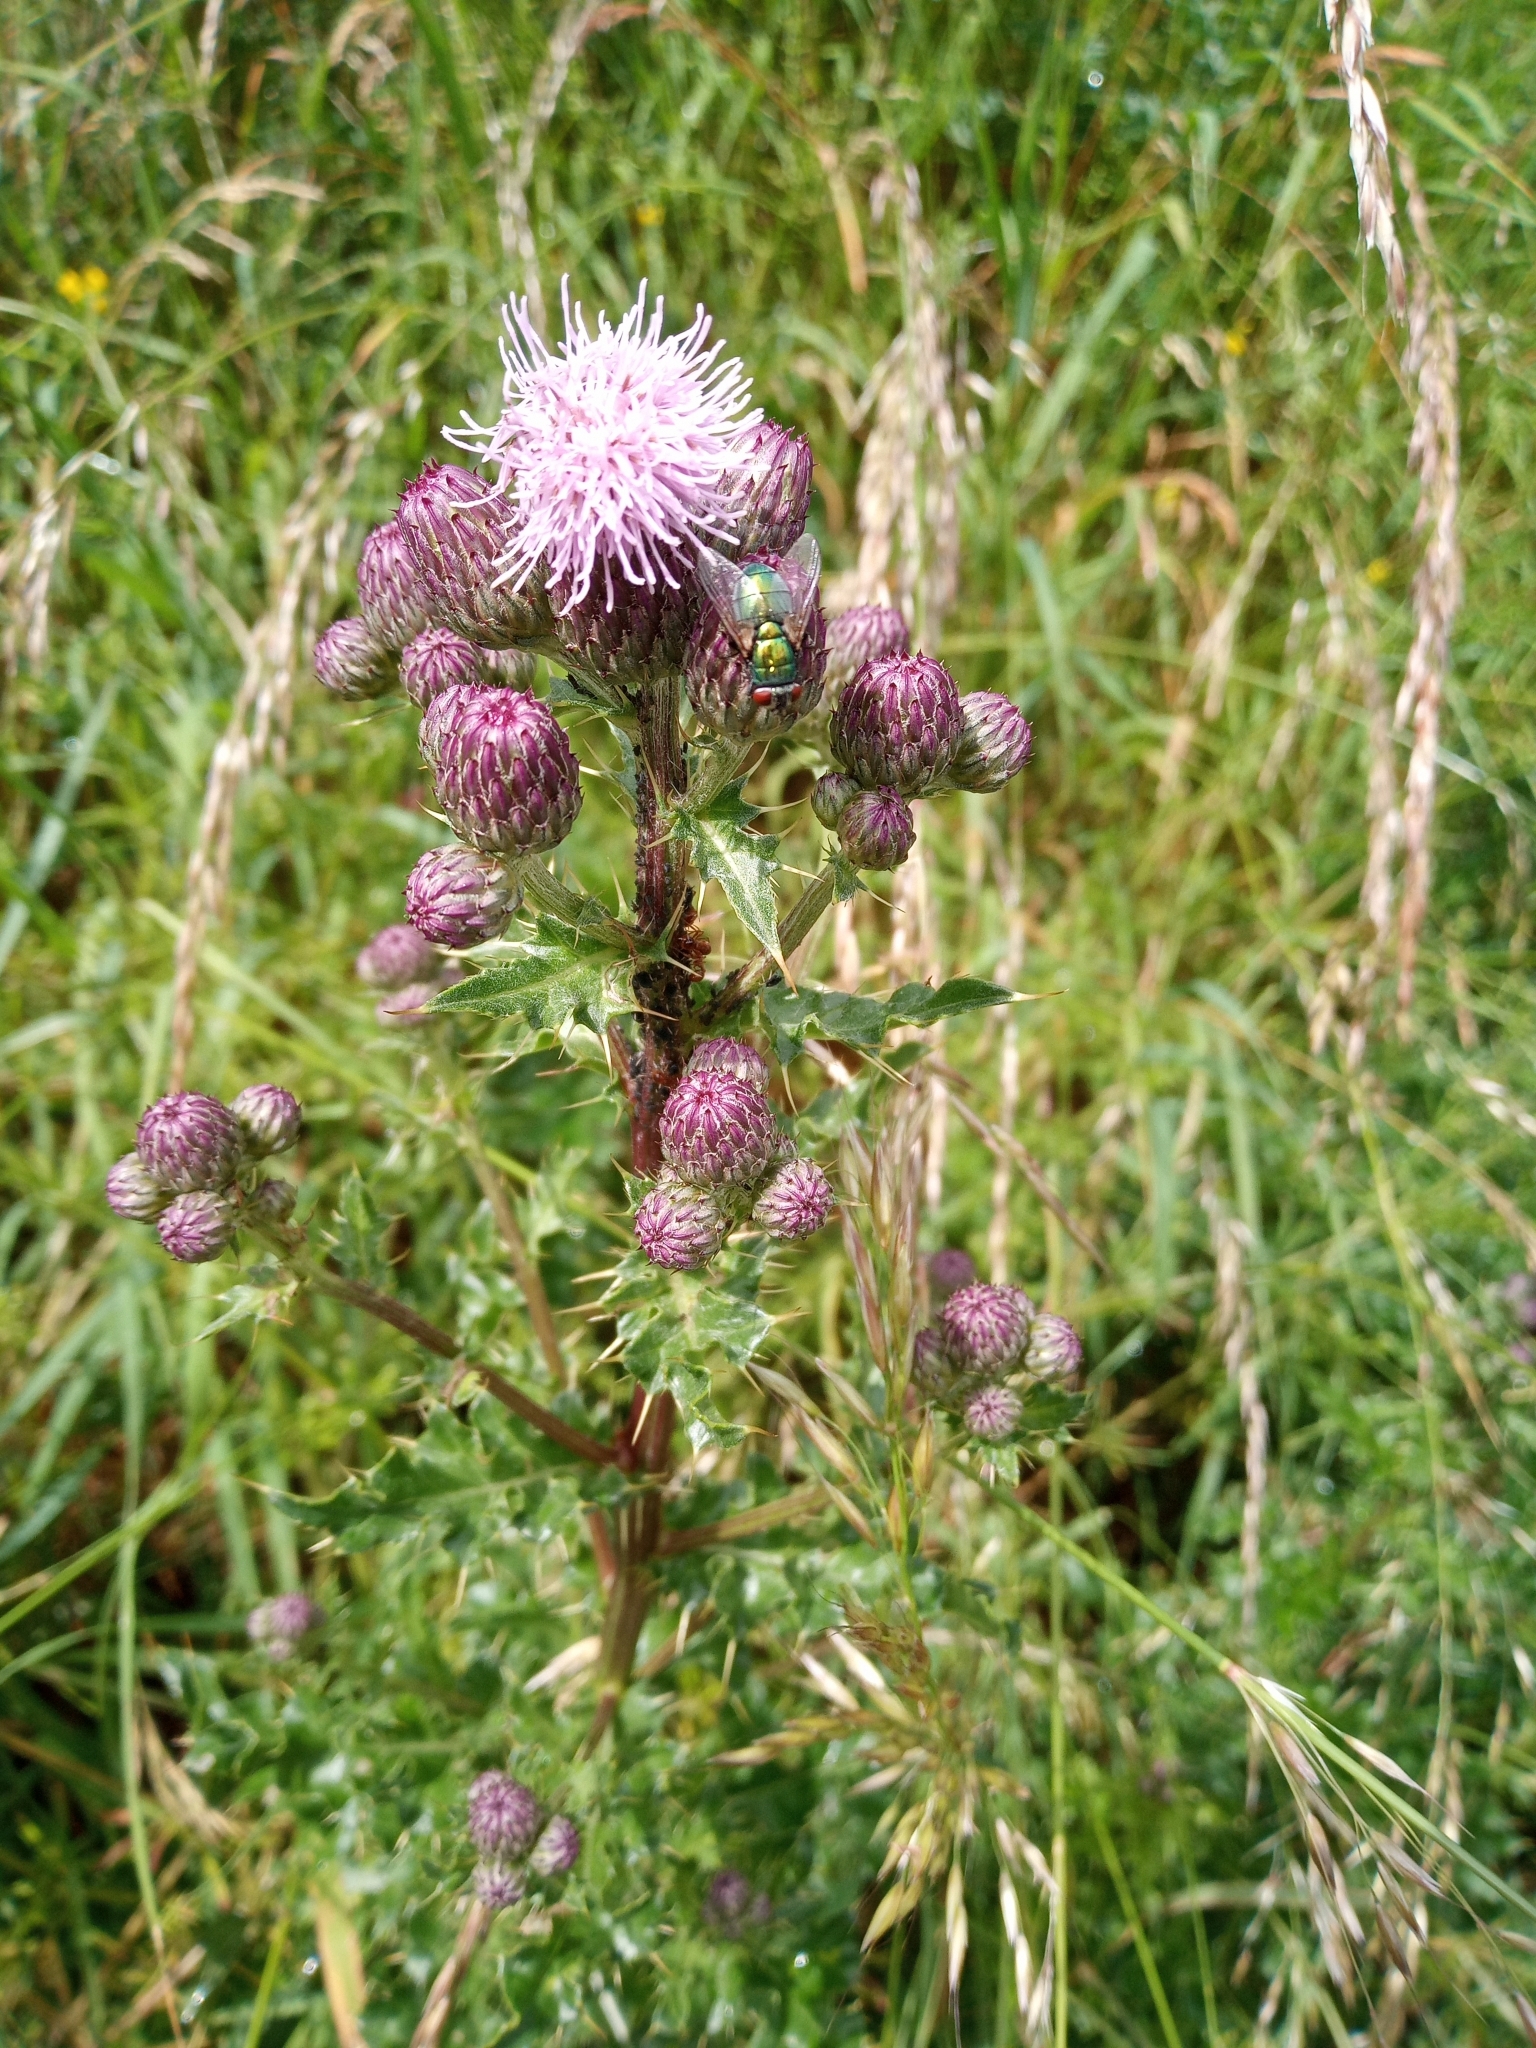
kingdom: Plantae
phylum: Tracheophyta
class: Magnoliopsida
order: Asterales
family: Asteraceae
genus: Cirsium
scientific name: Cirsium arvense
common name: Creeping thistle
